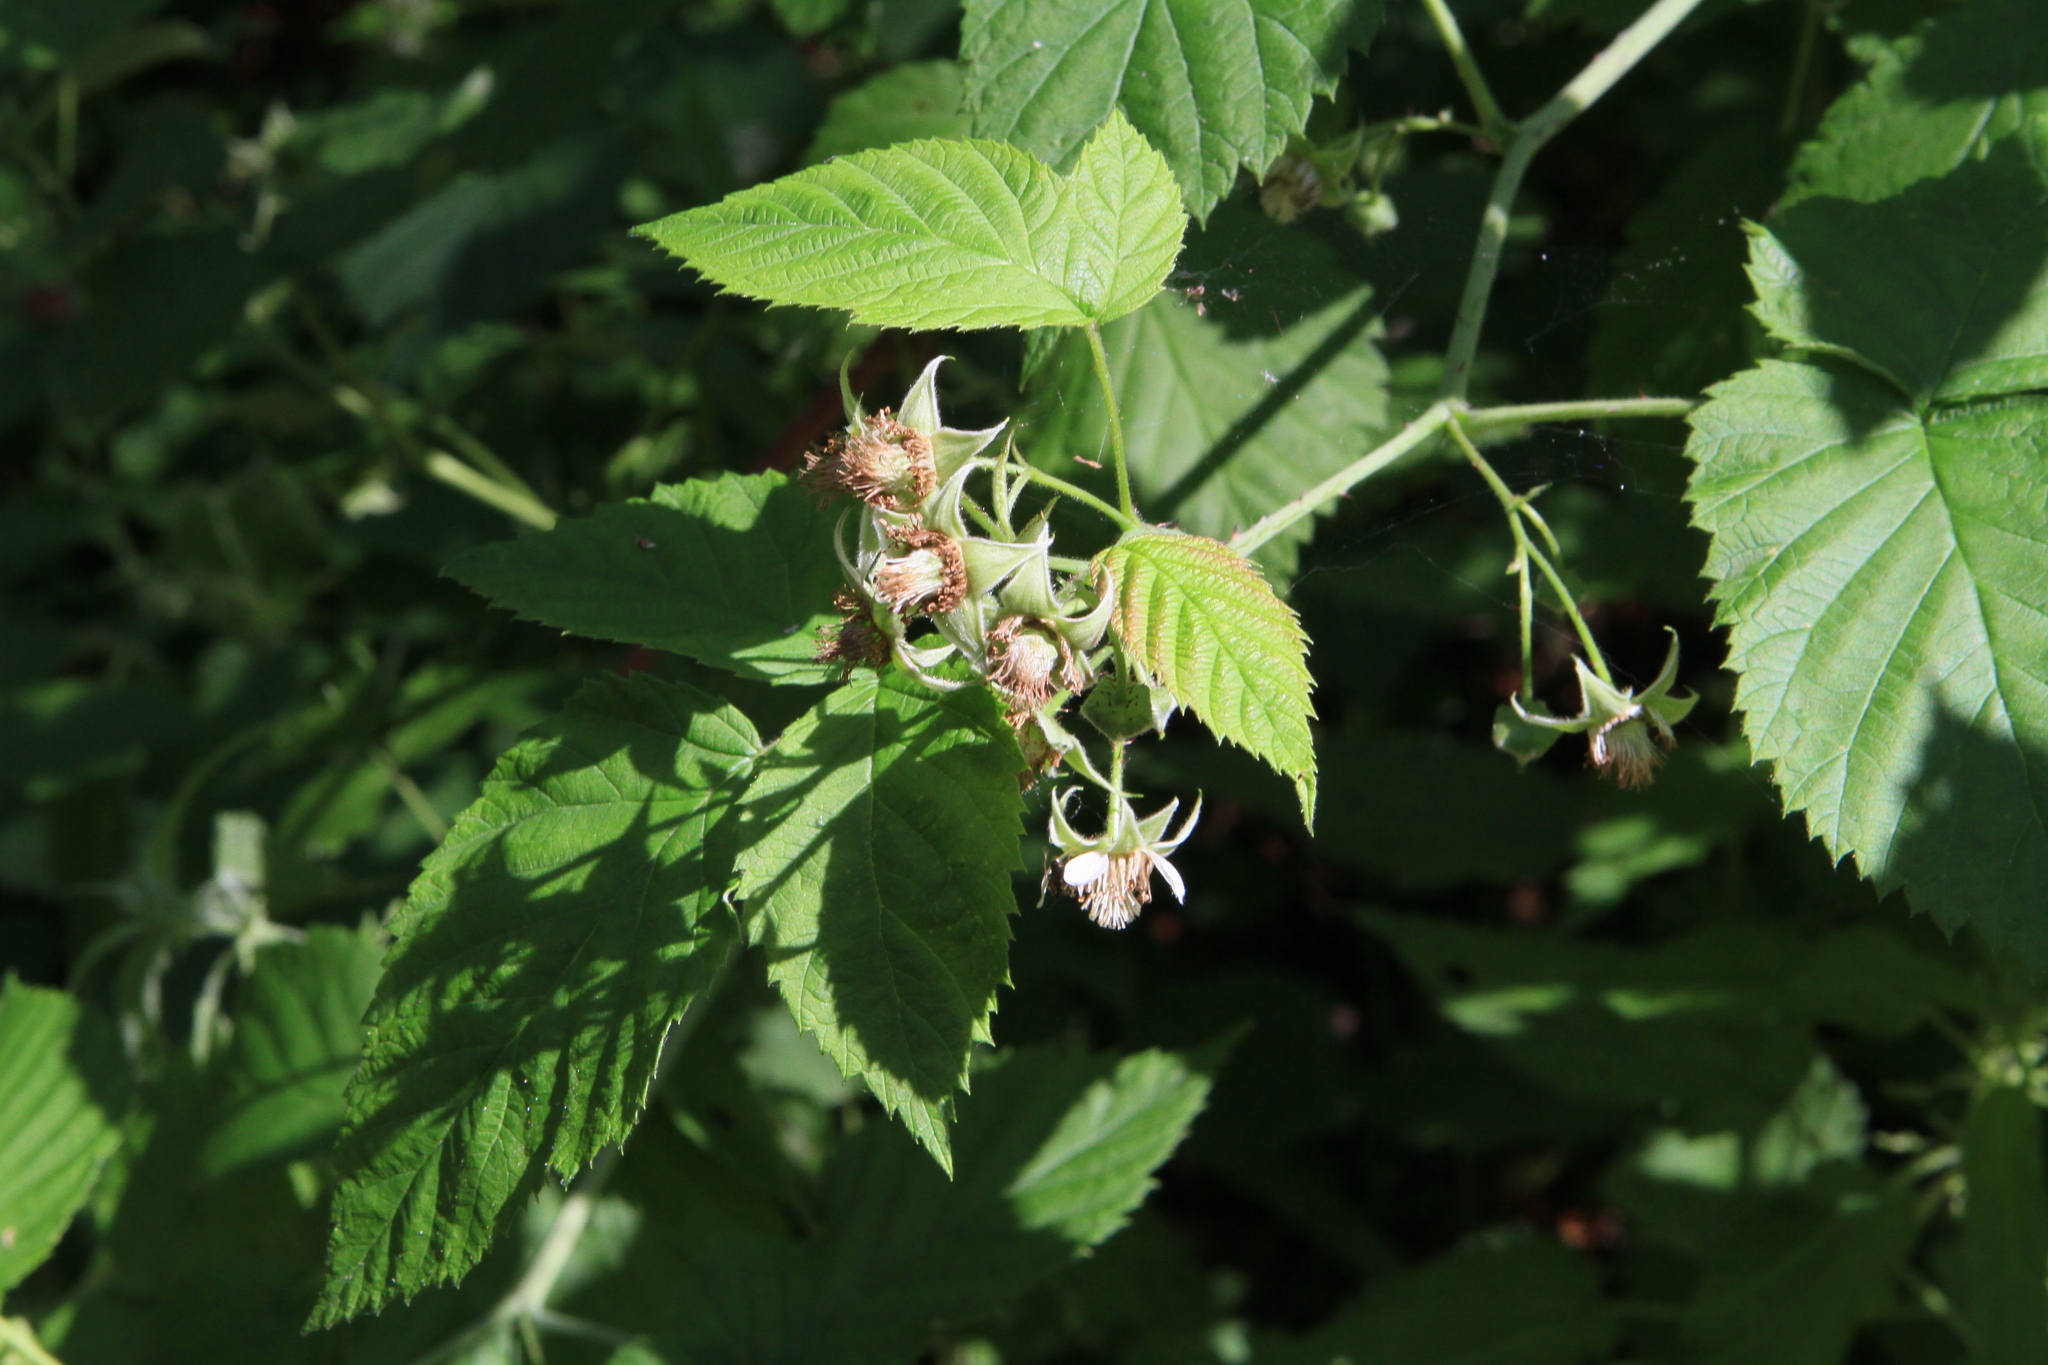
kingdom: Plantae
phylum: Tracheophyta
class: Magnoliopsida
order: Rosales
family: Rosaceae
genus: Rubus
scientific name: Rubus idaeus
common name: Raspberry
